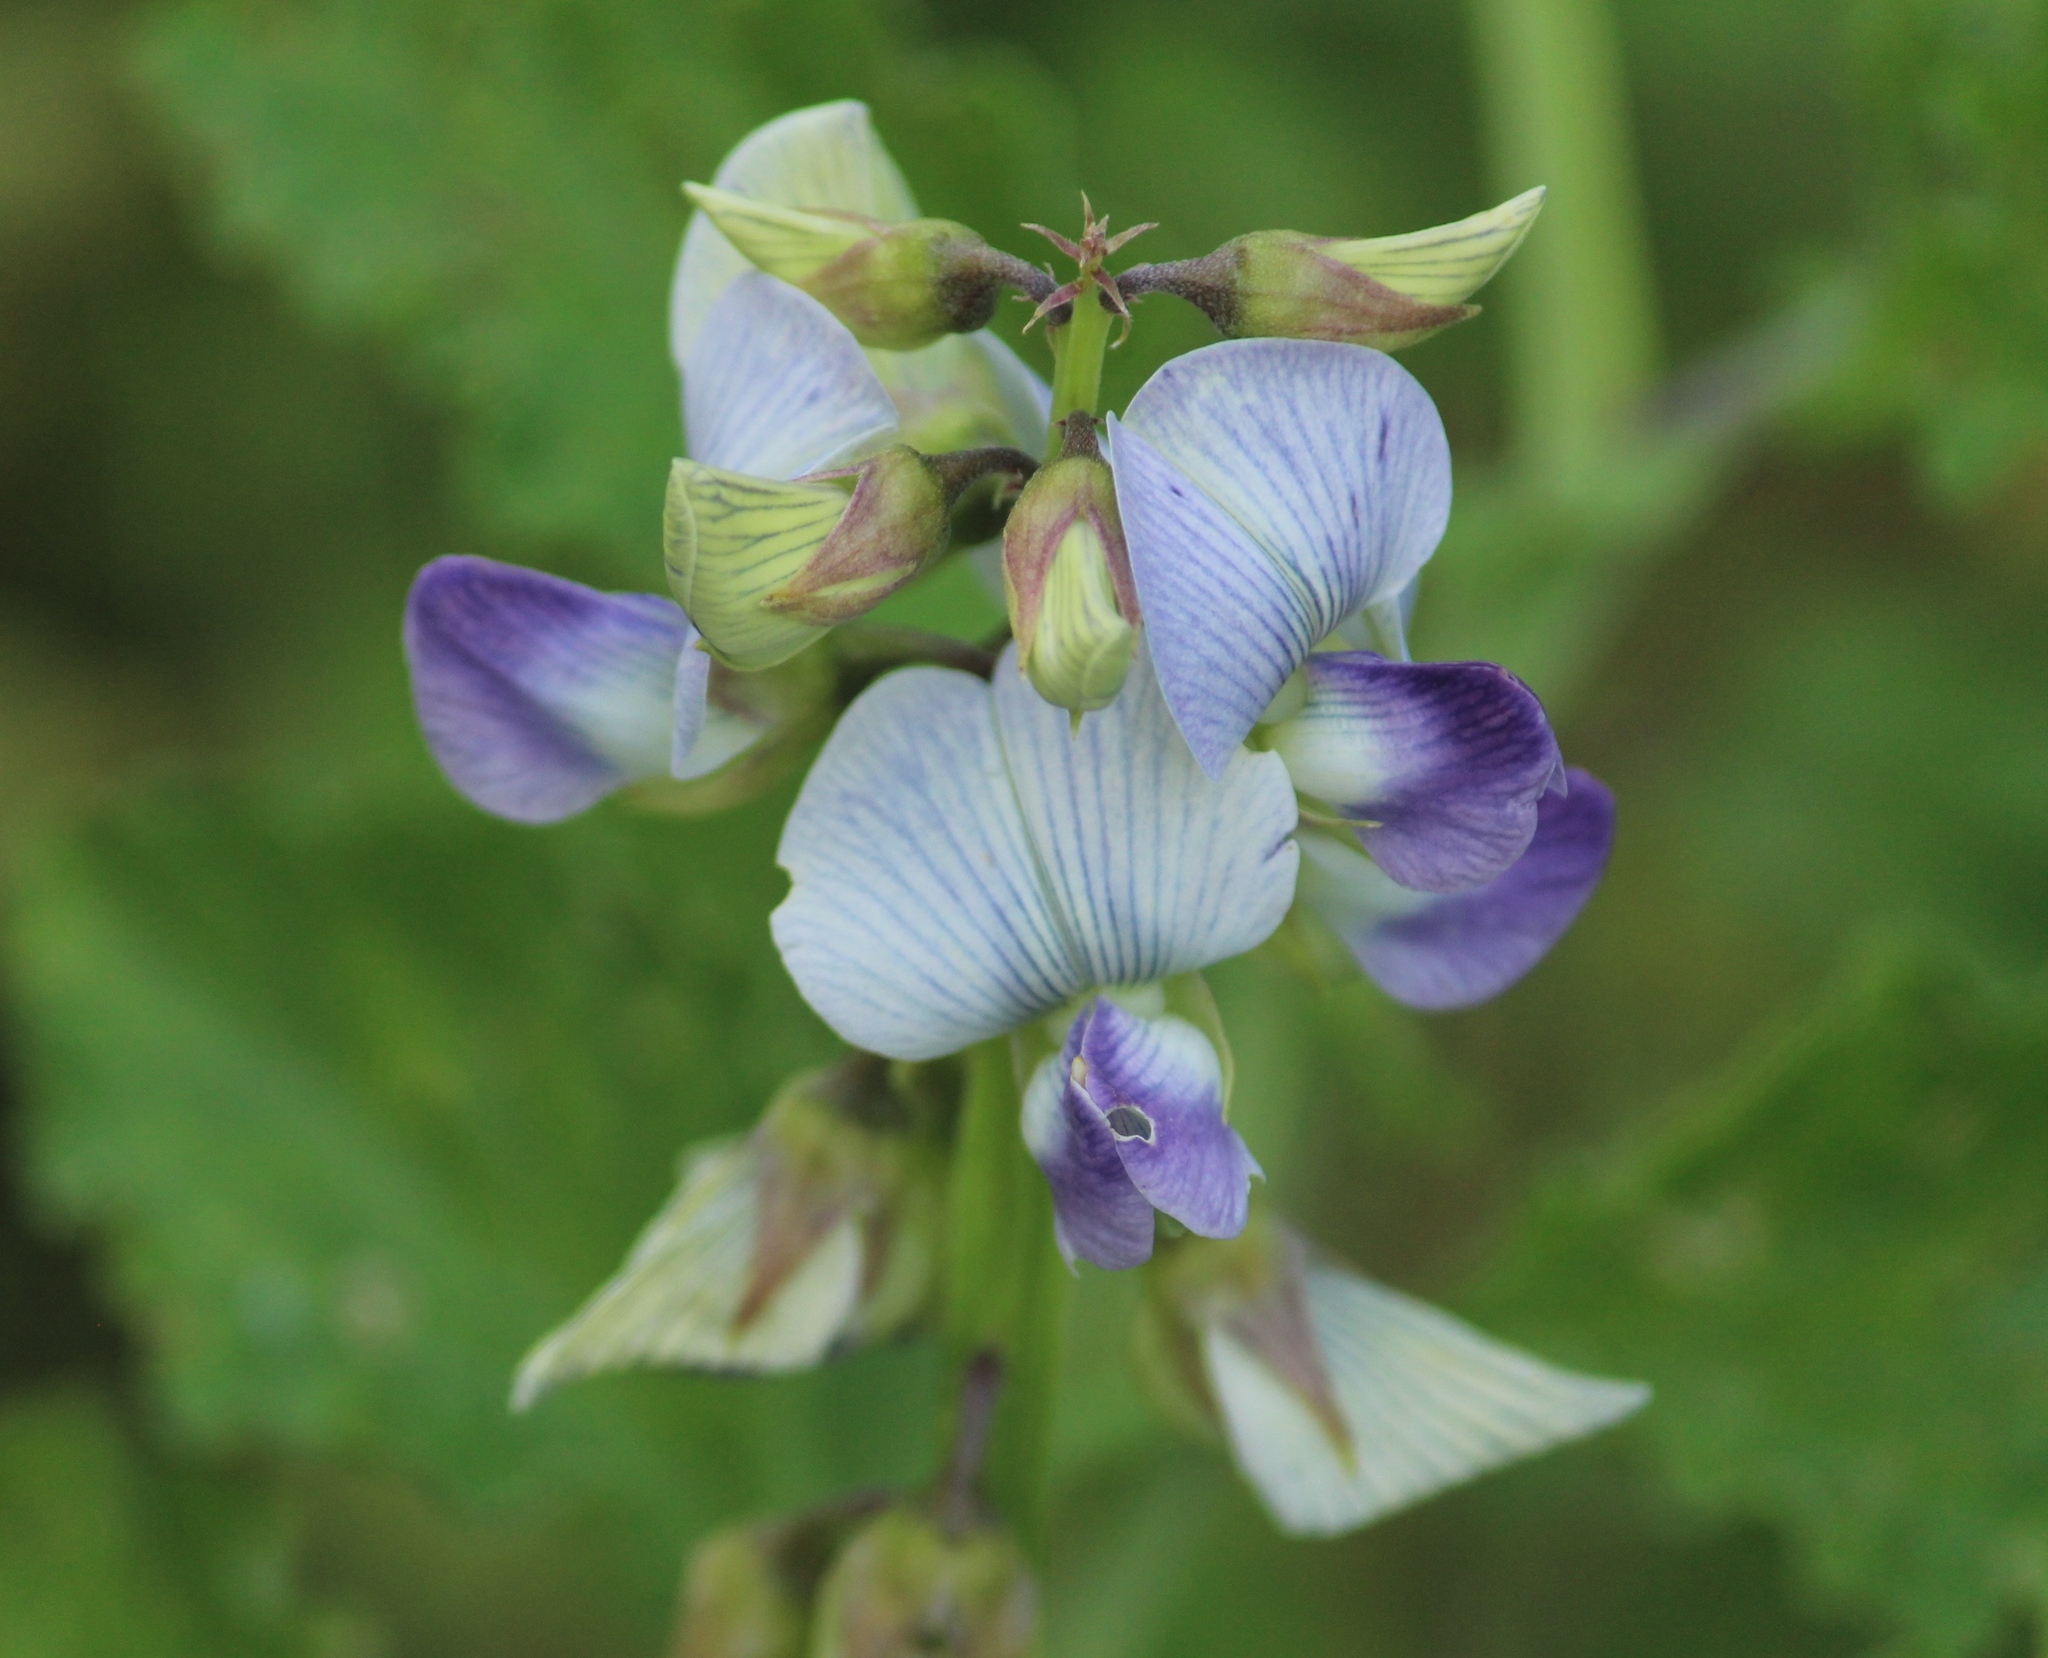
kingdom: Plantae
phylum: Tracheophyta
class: Magnoliopsida
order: Fabales
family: Fabaceae
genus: Crotalaria
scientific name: Crotalaria verrucosa
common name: Blue rattlesnake
